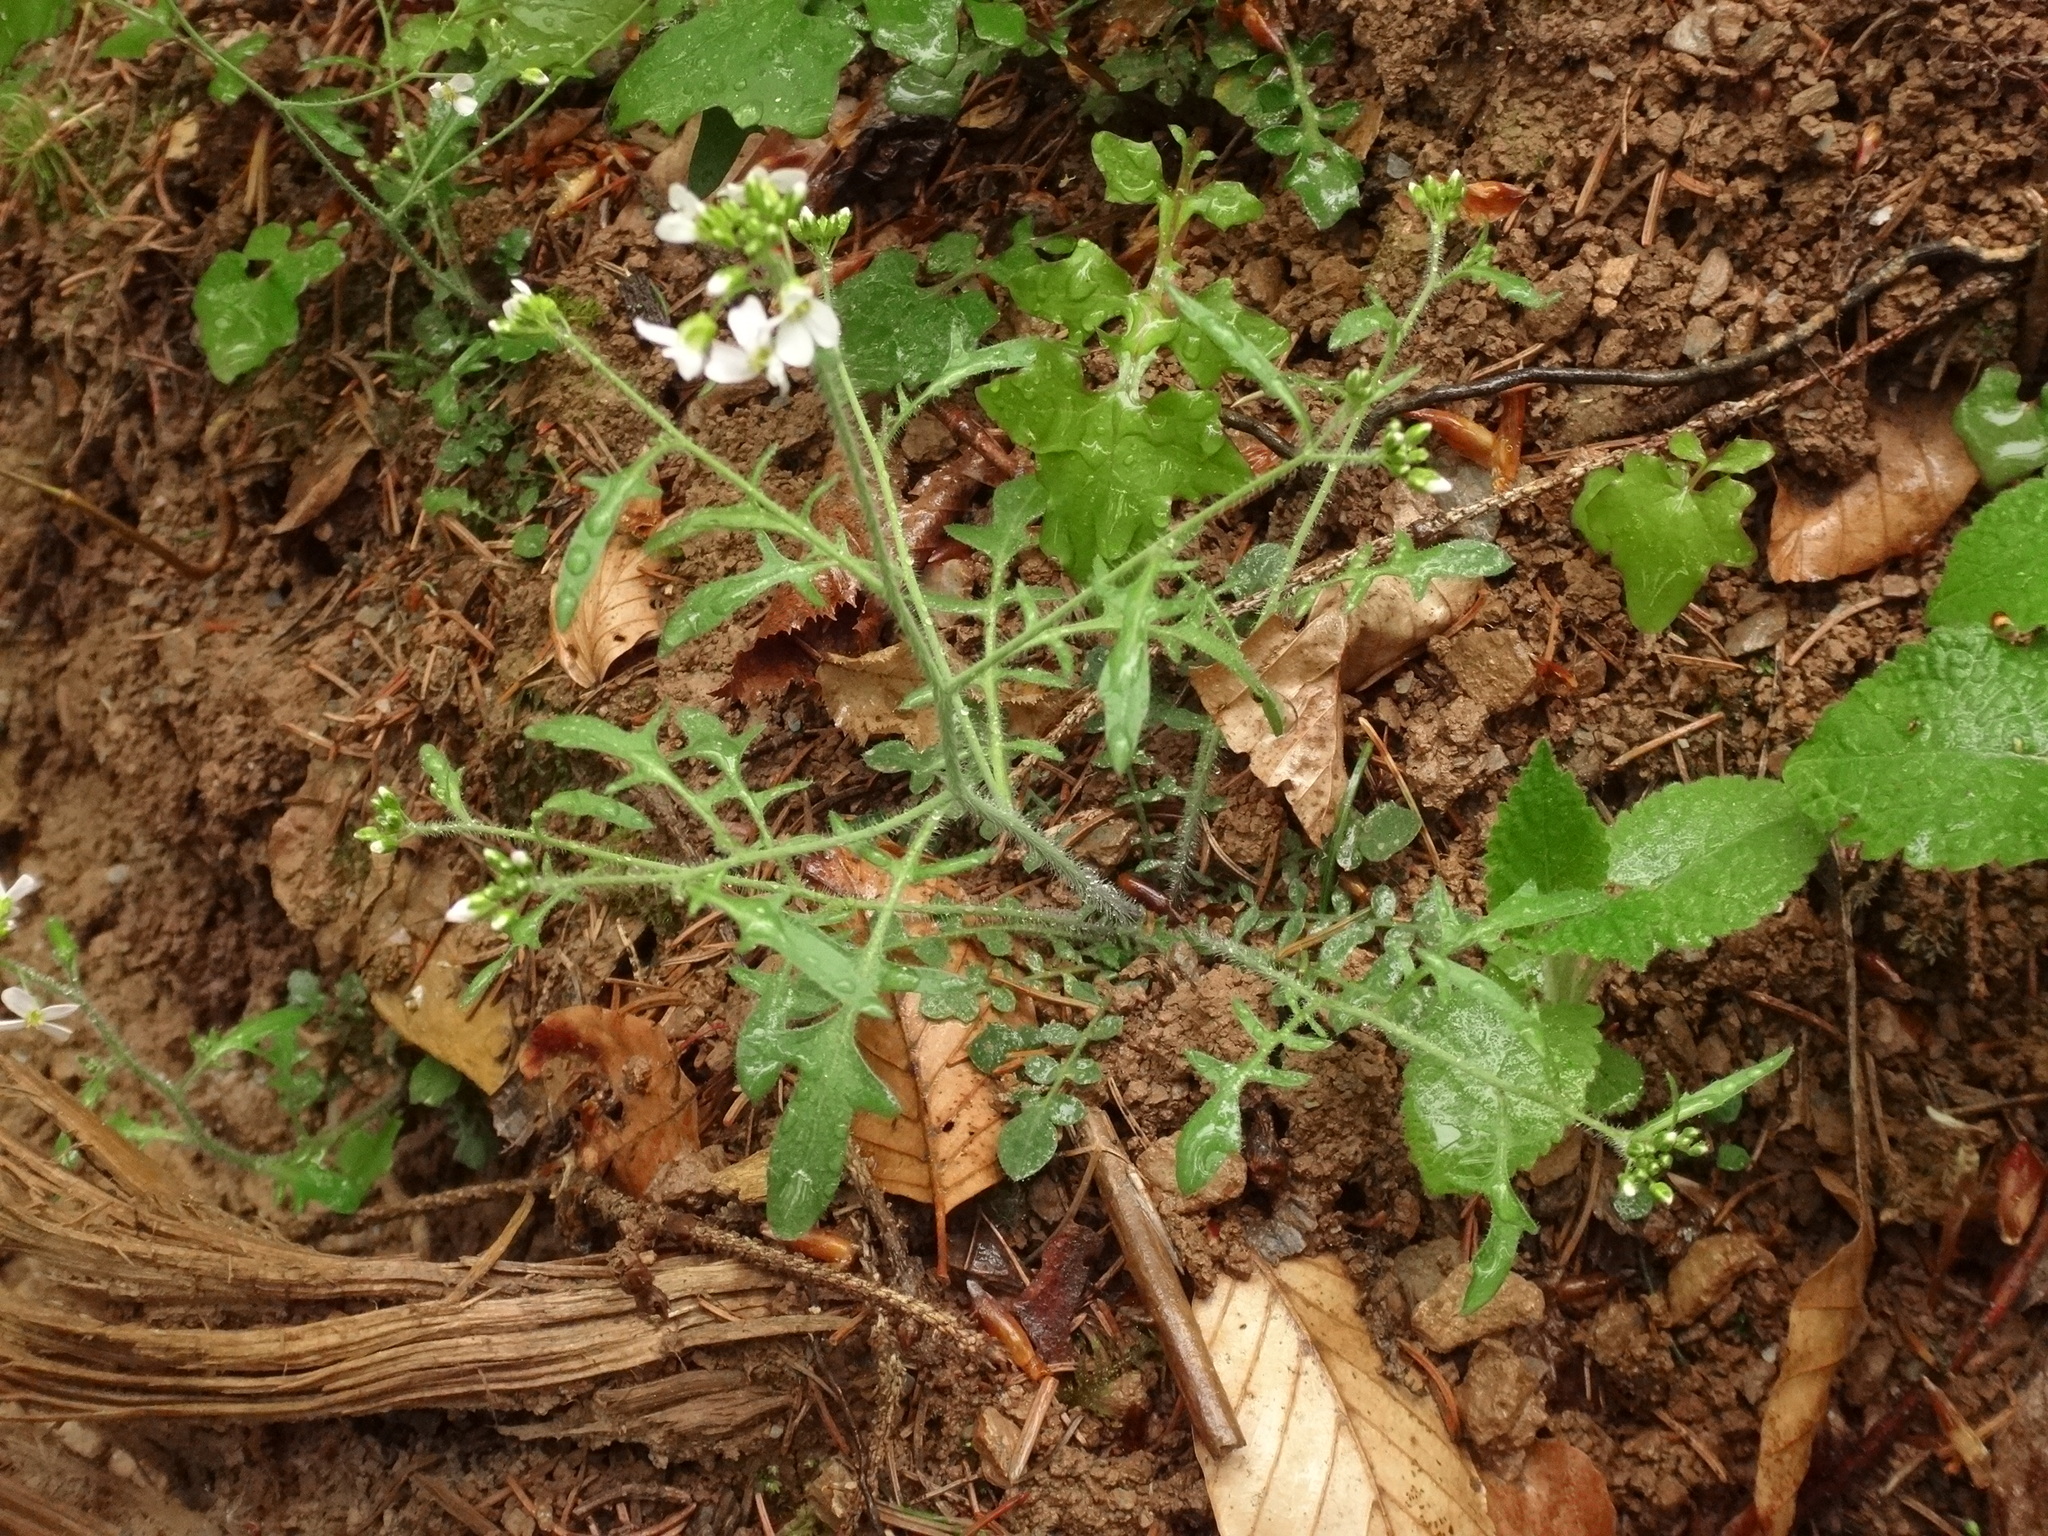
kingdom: Plantae
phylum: Tracheophyta
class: Magnoliopsida
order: Brassicales
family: Brassicaceae
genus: Arabidopsis
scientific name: Arabidopsis arenosa
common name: Sand rock-cress
